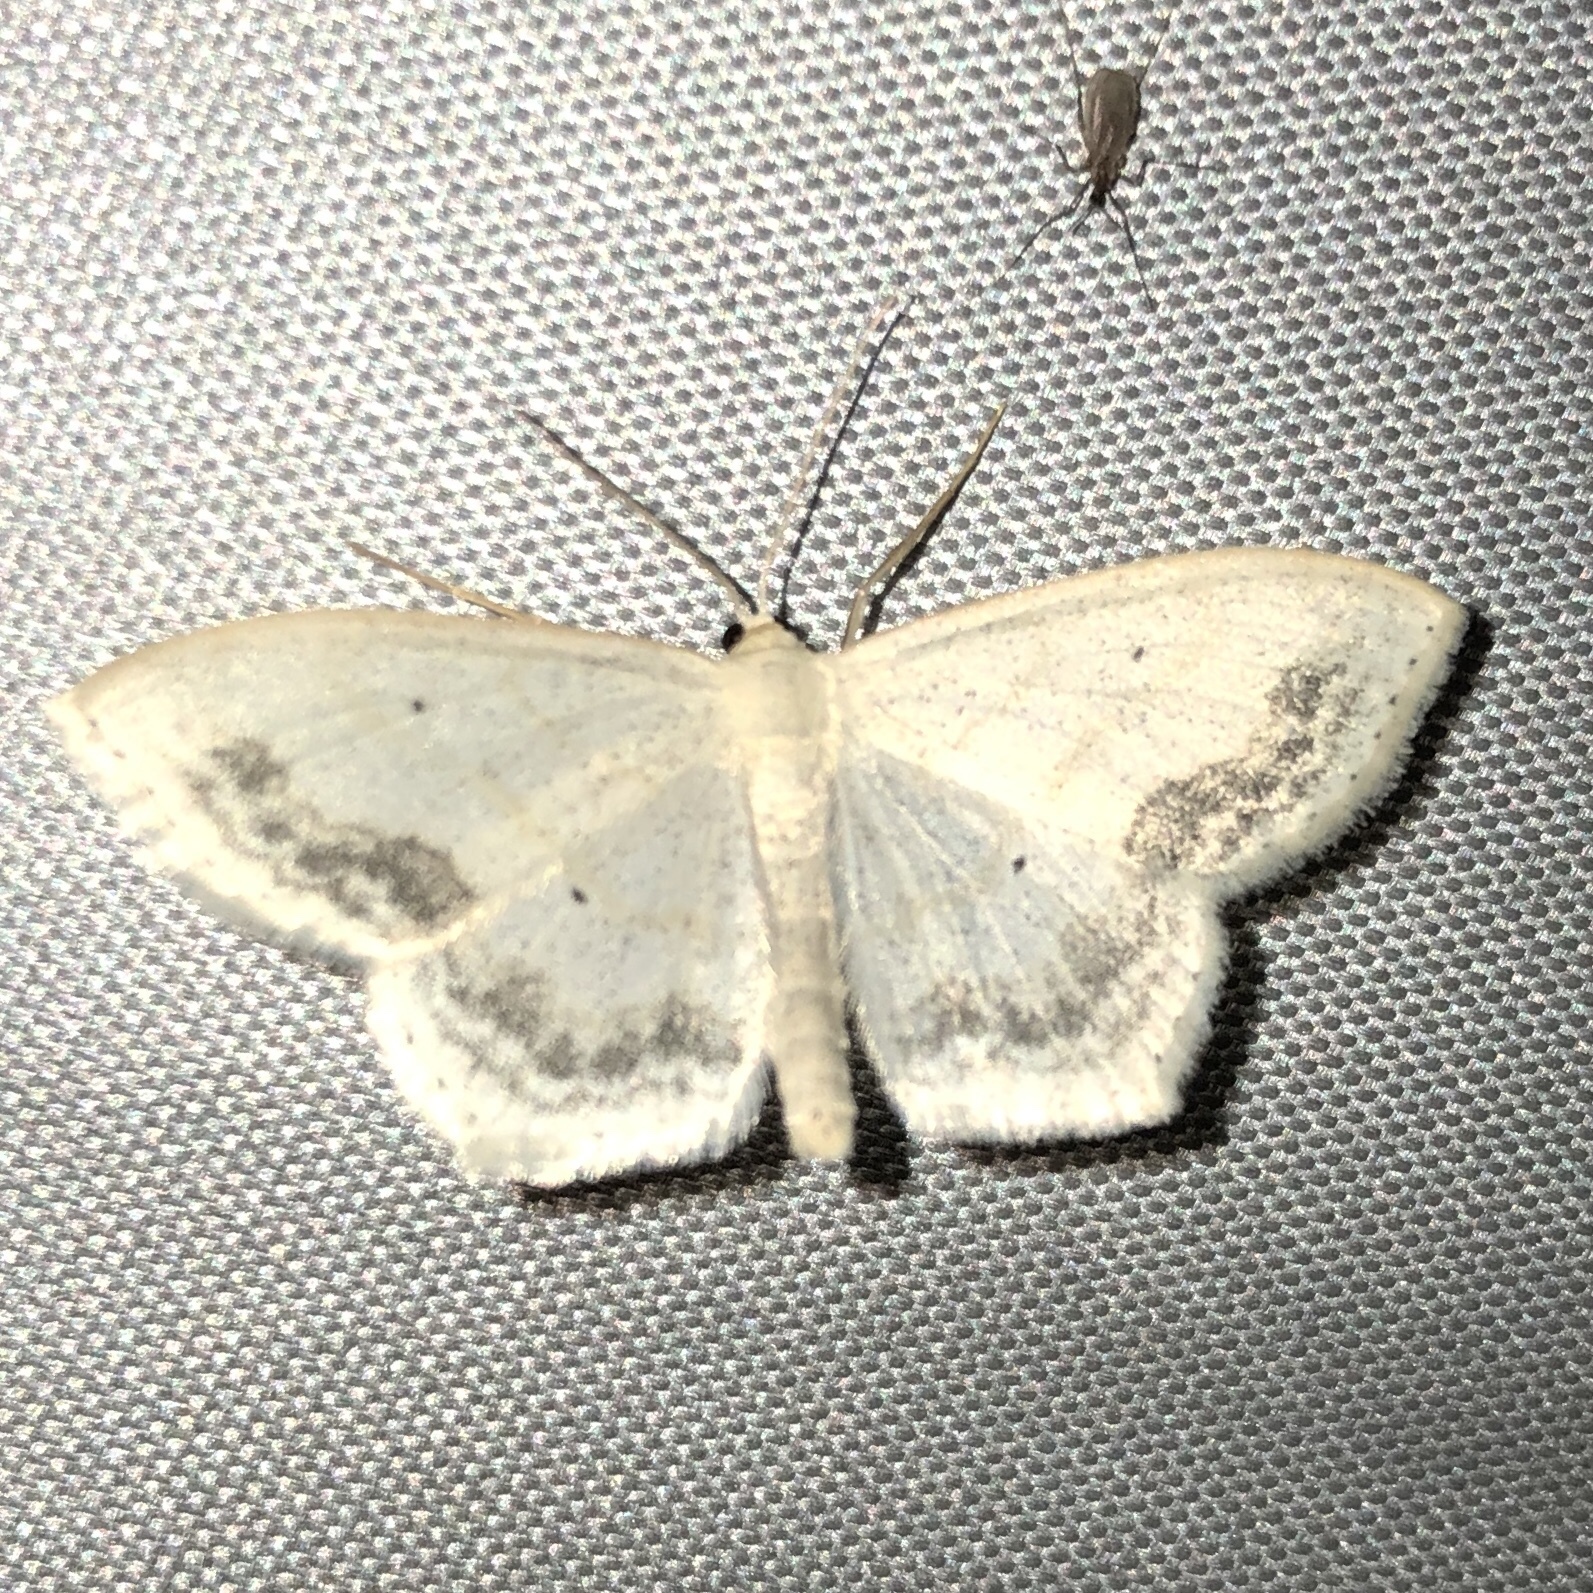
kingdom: Animalia
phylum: Arthropoda
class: Insecta
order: Lepidoptera
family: Geometridae
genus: Scopula
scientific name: Scopula limboundata
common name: Large lace border
